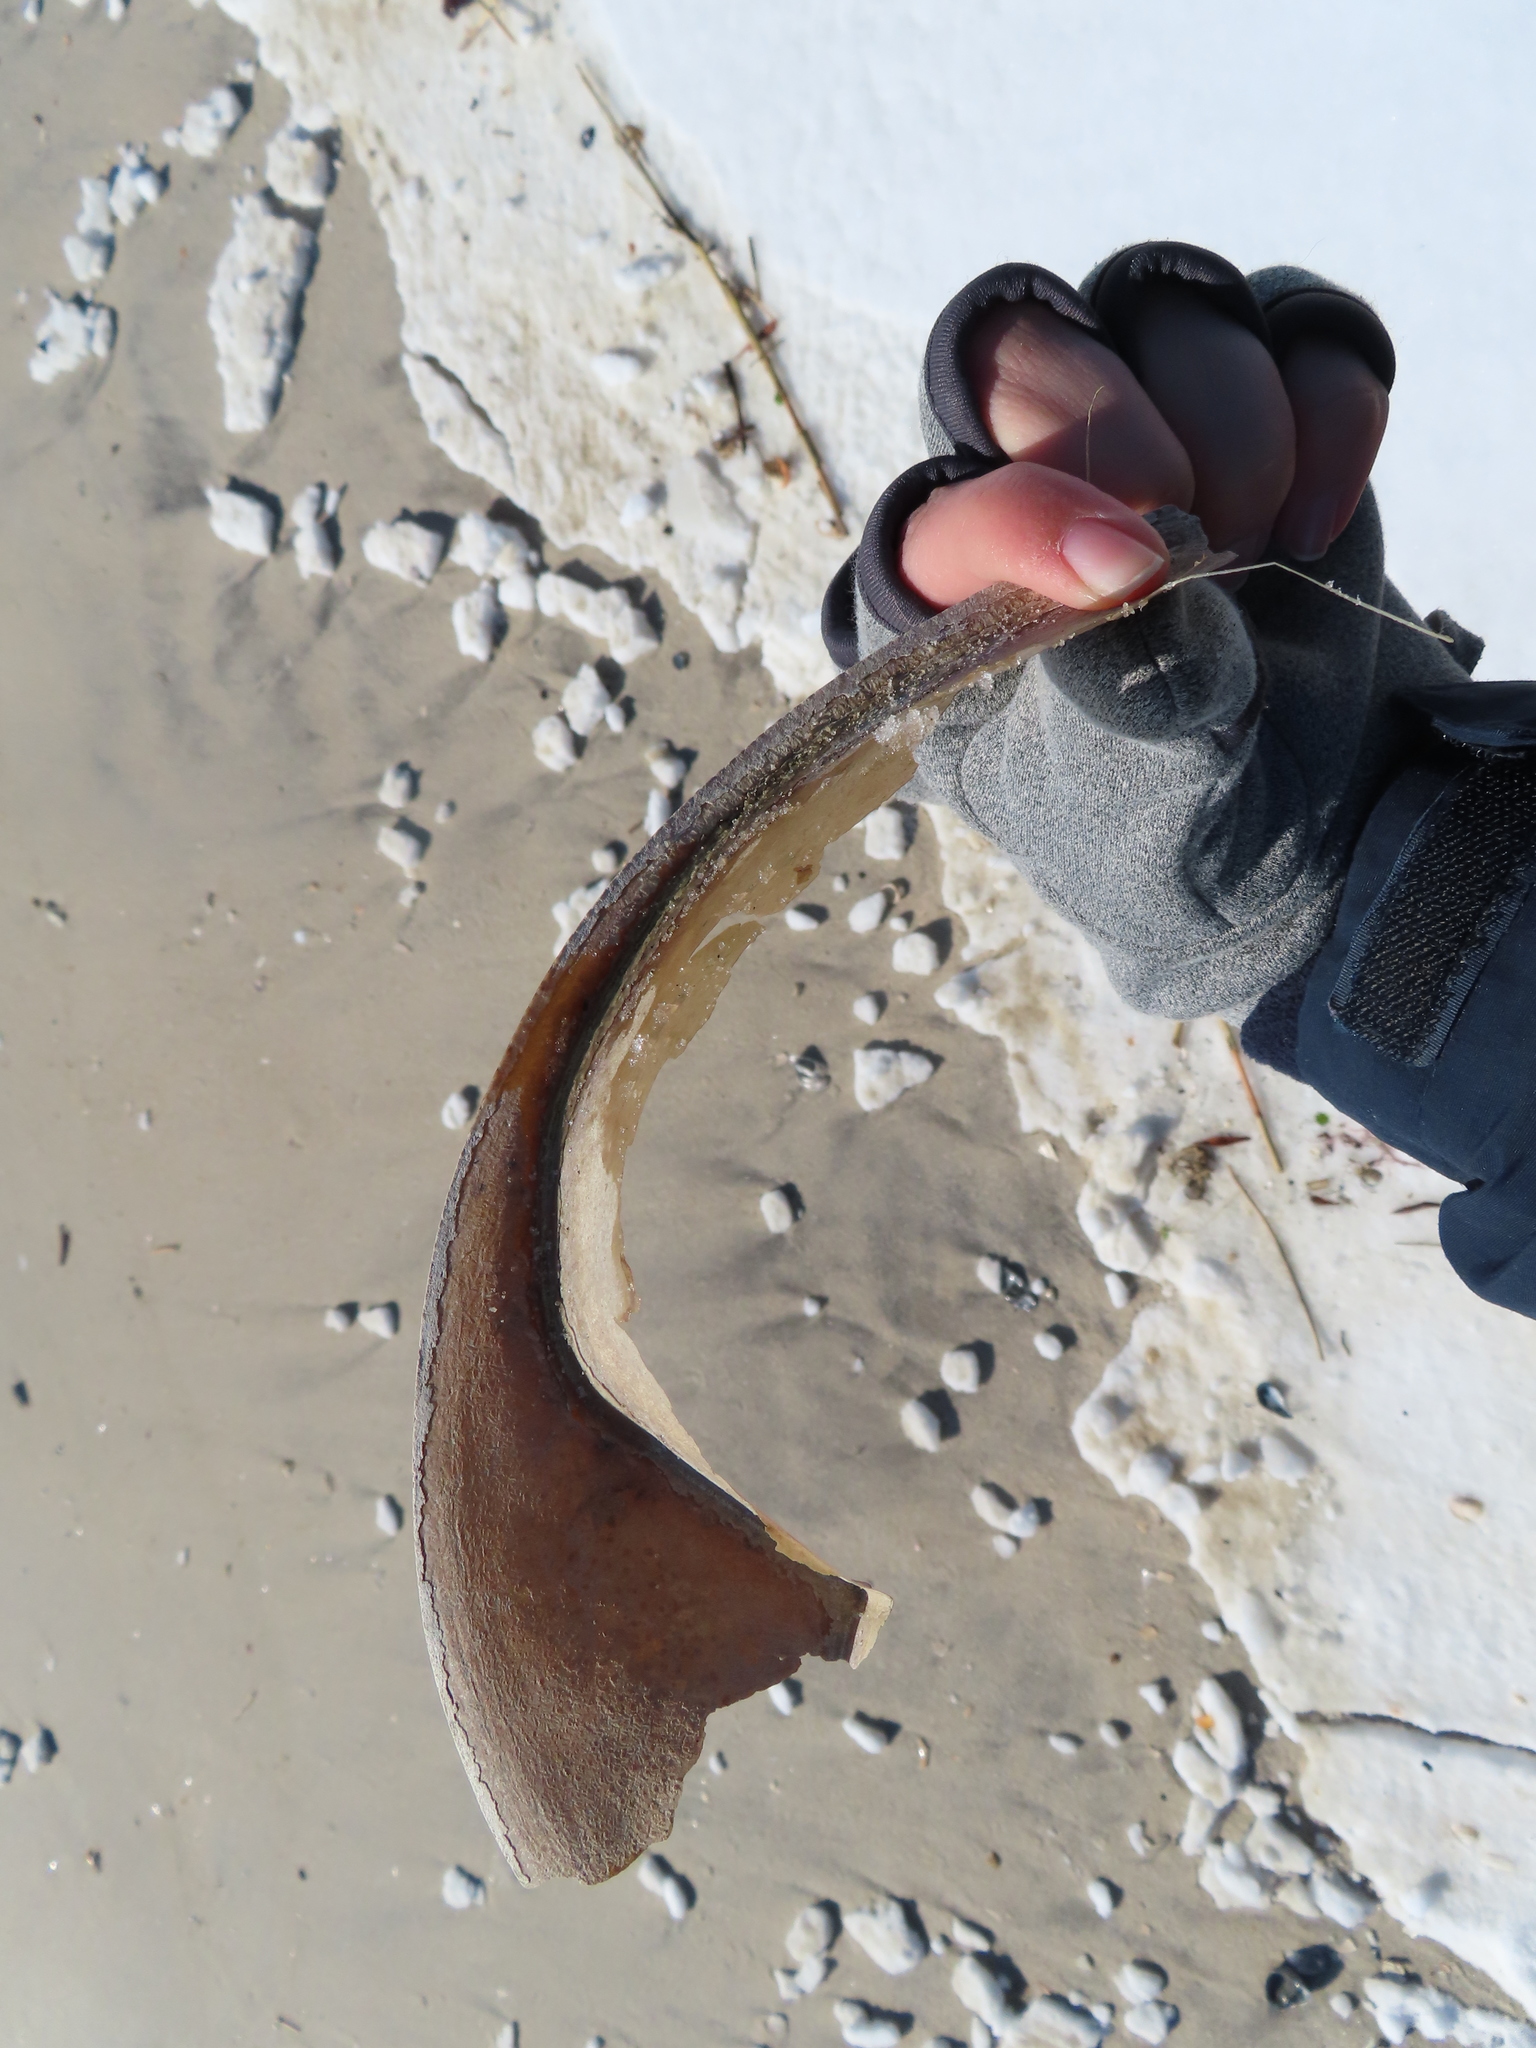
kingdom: Animalia
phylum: Arthropoda
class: Merostomata
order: Xiphosurida
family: Limulidae
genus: Limulus
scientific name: Limulus polyphemus
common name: Horseshoe crab
